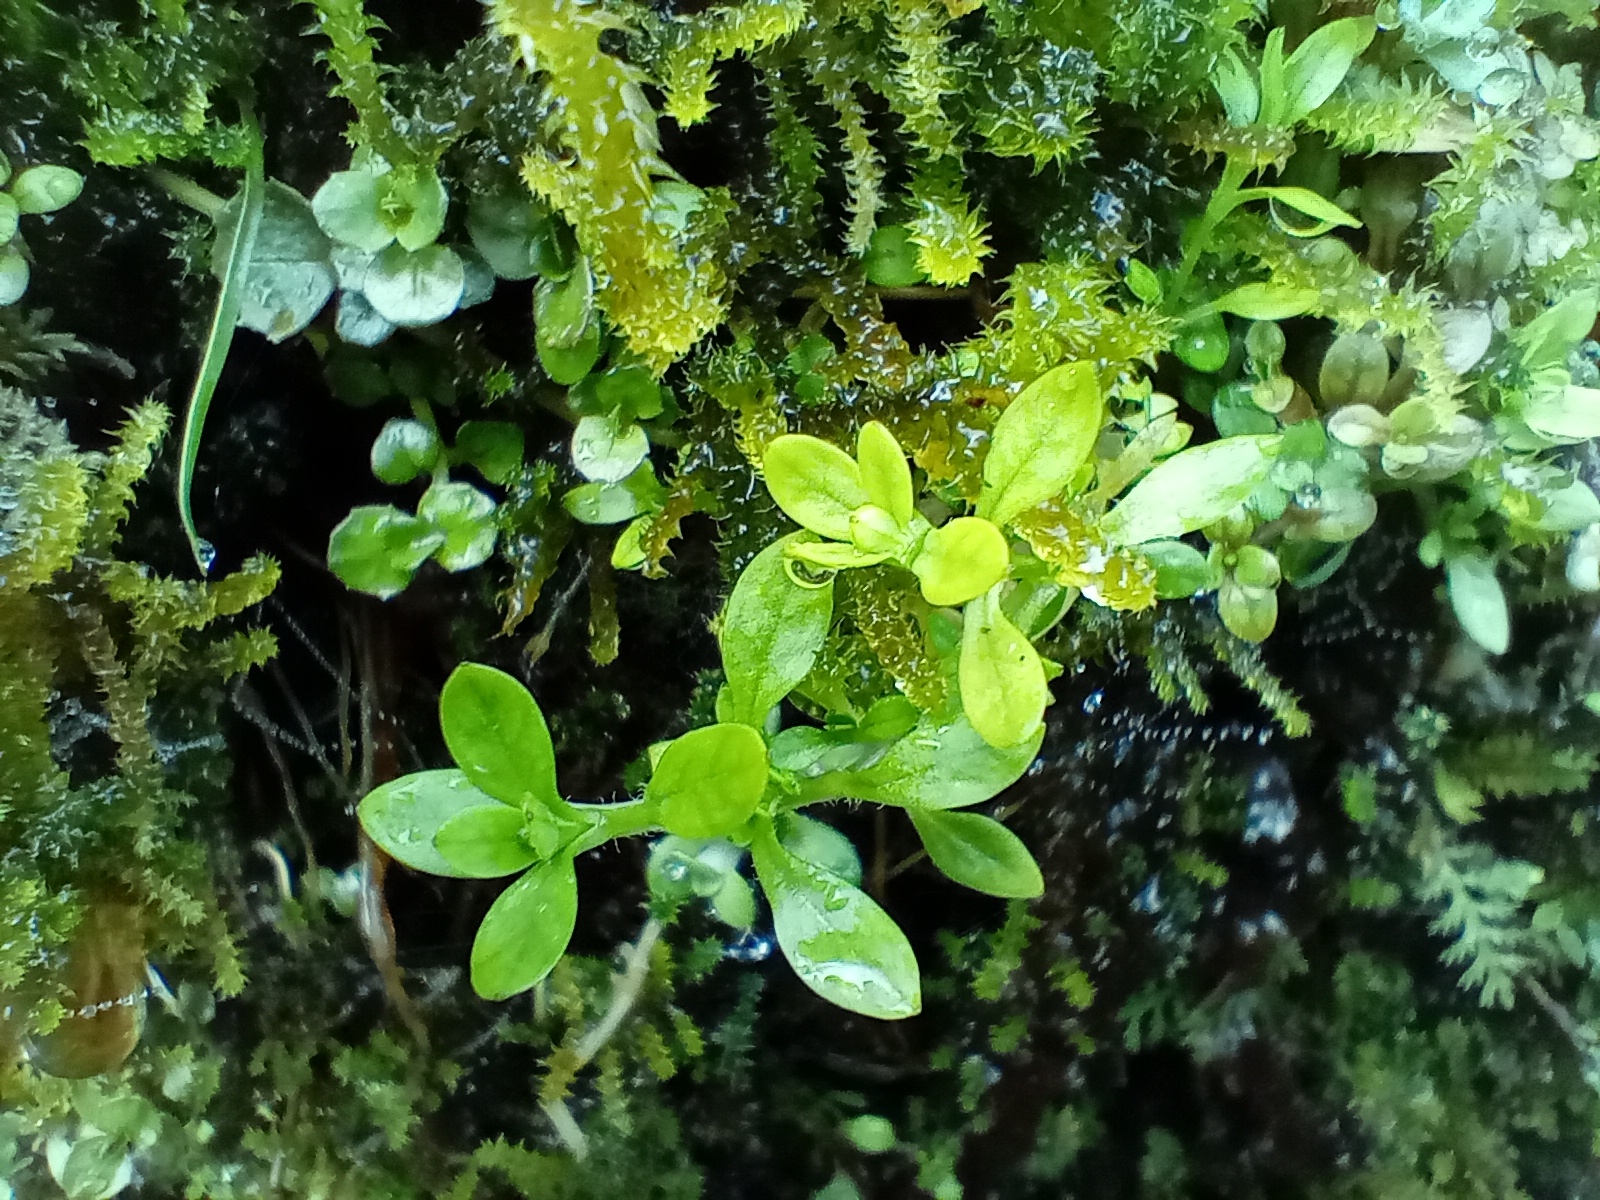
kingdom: Plantae
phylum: Tracheophyta
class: Magnoliopsida
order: Caryophyllales
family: Montiaceae
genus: Montia
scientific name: Montia fontana
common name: Blinks
